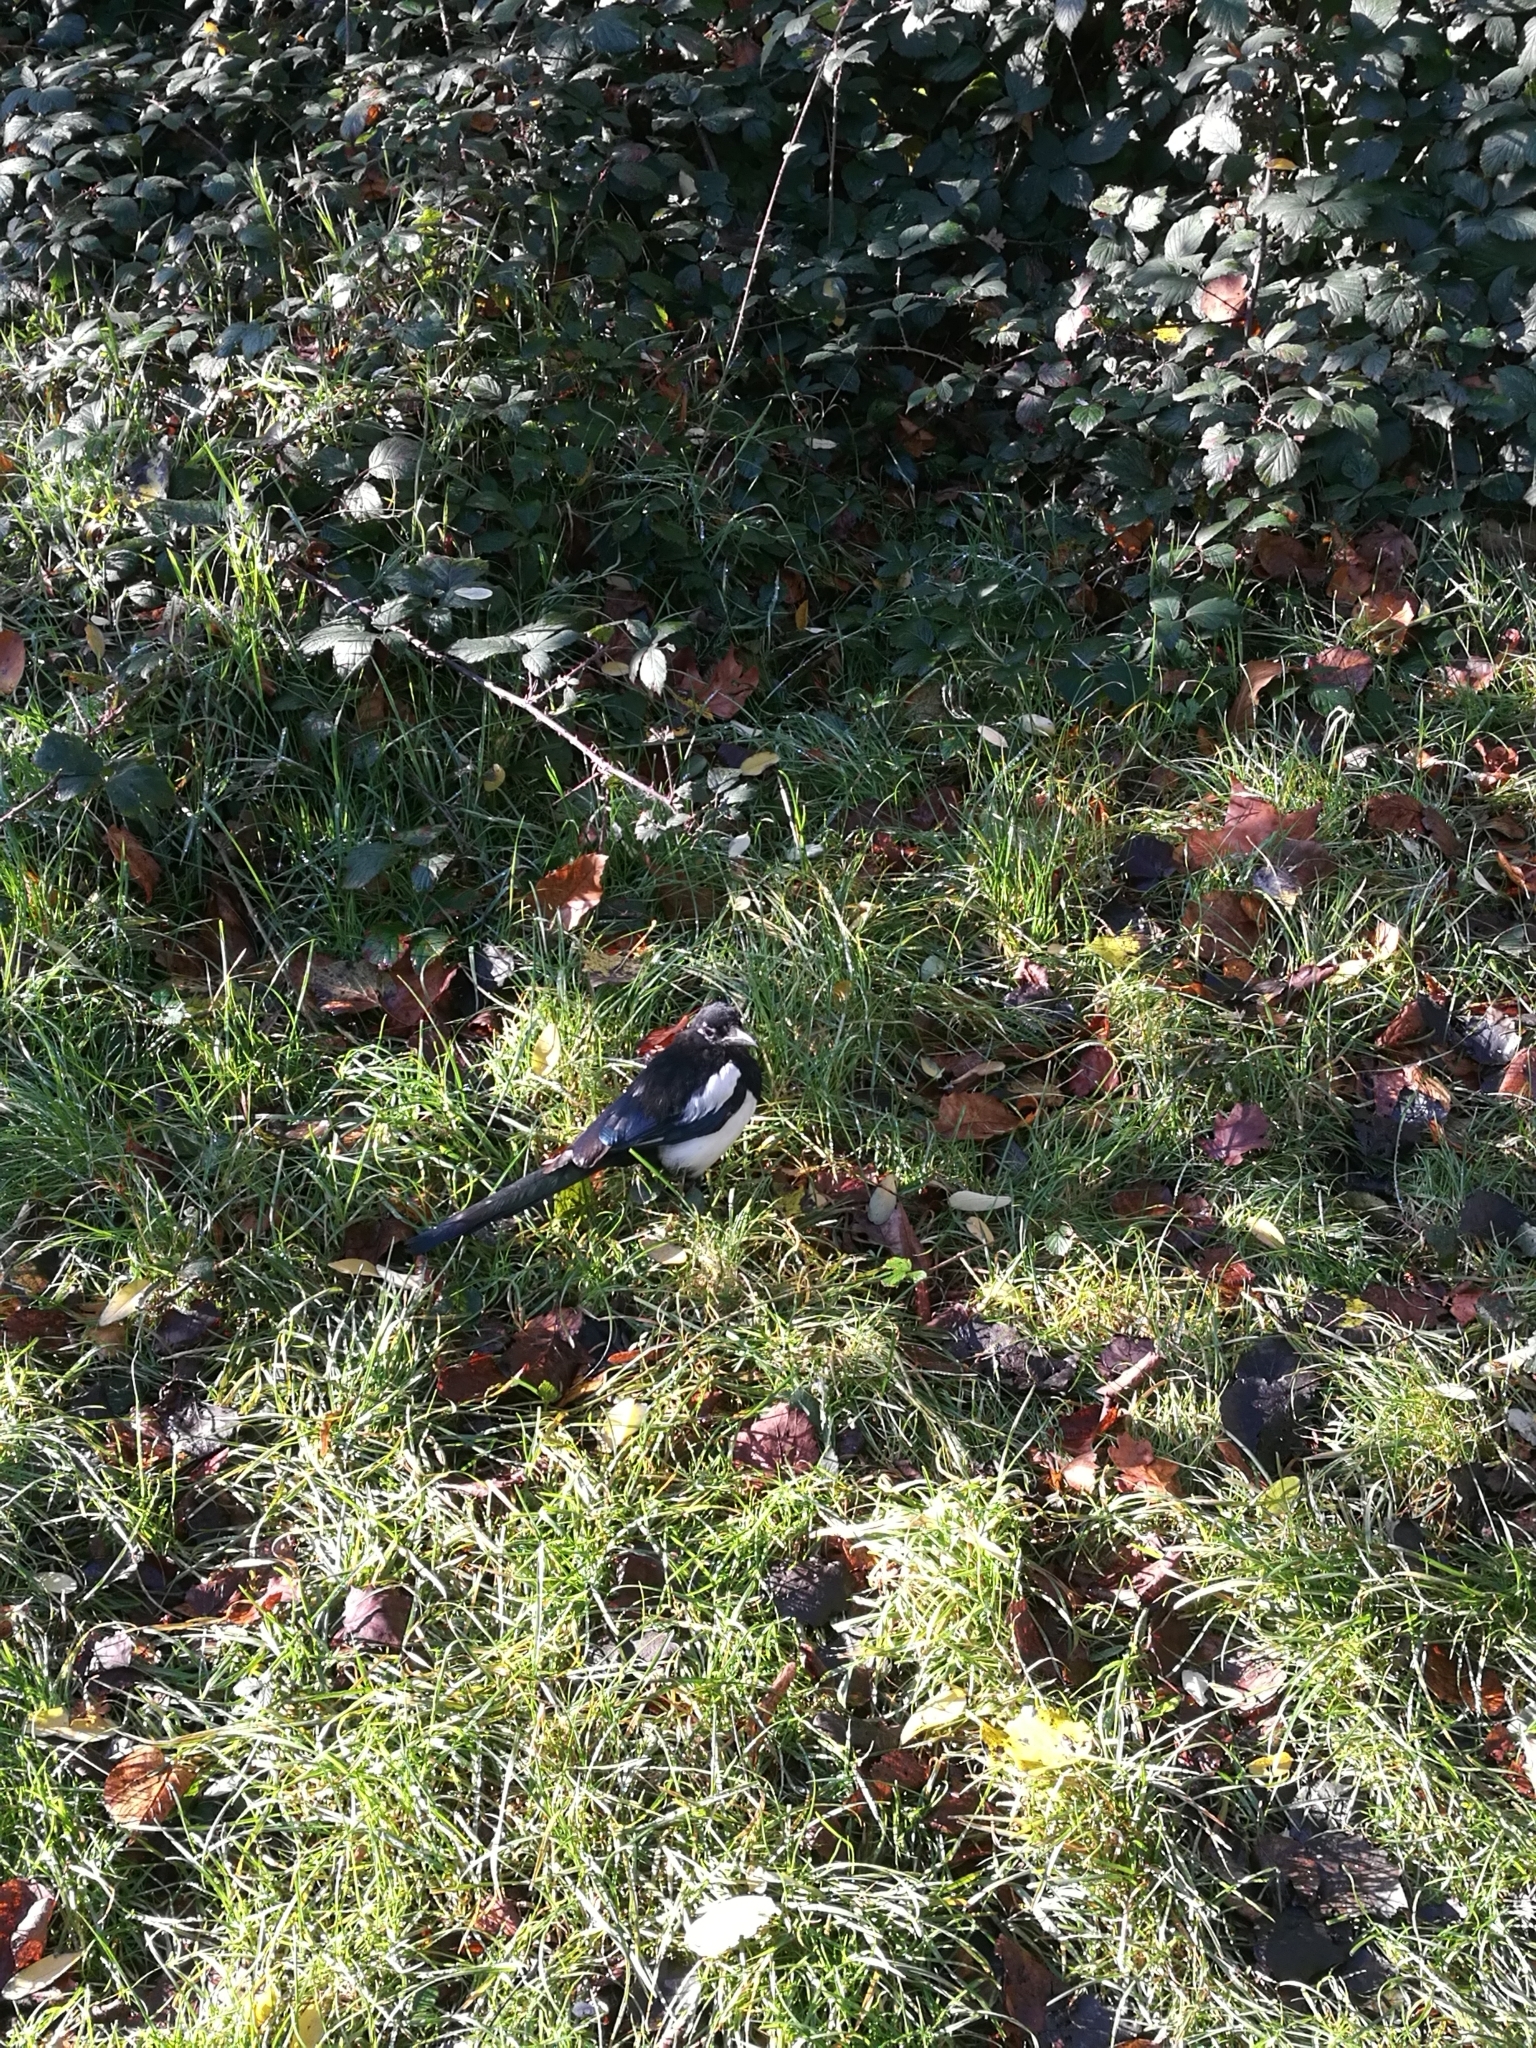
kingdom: Animalia
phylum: Chordata
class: Aves
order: Passeriformes
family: Corvidae
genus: Pica
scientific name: Pica pica
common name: Eurasian magpie
